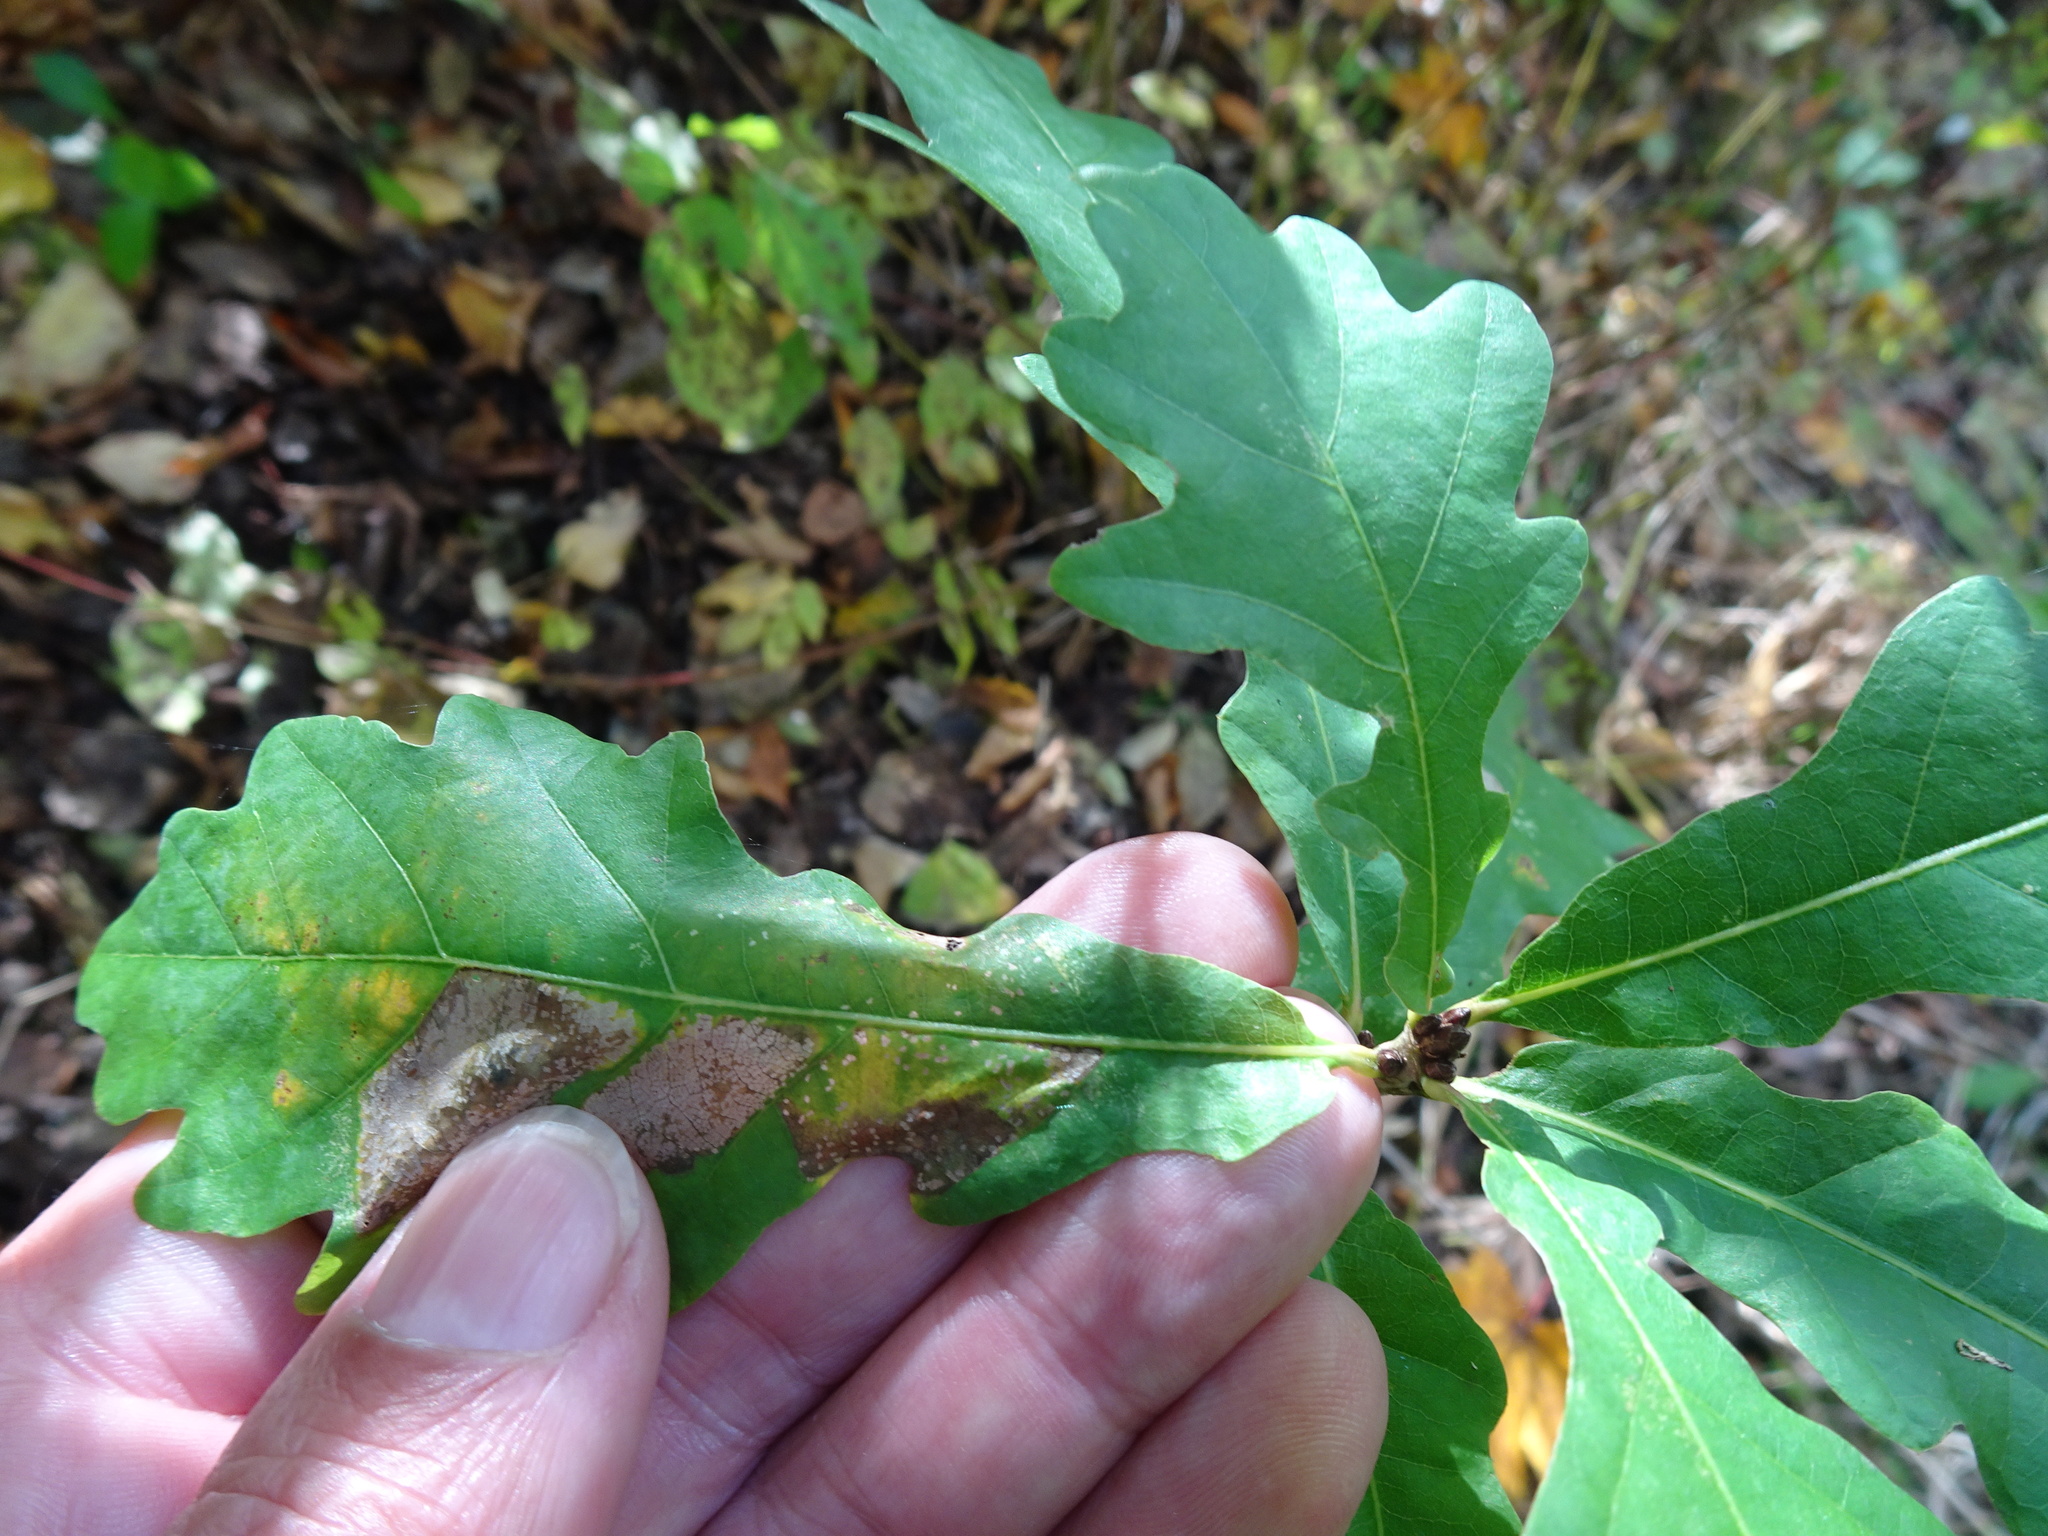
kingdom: Plantae
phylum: Tracheophyta
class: Magnoliopsida
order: Fagales
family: Fagaceae
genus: Quercus
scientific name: Quercus petraea
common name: Sessile oak
